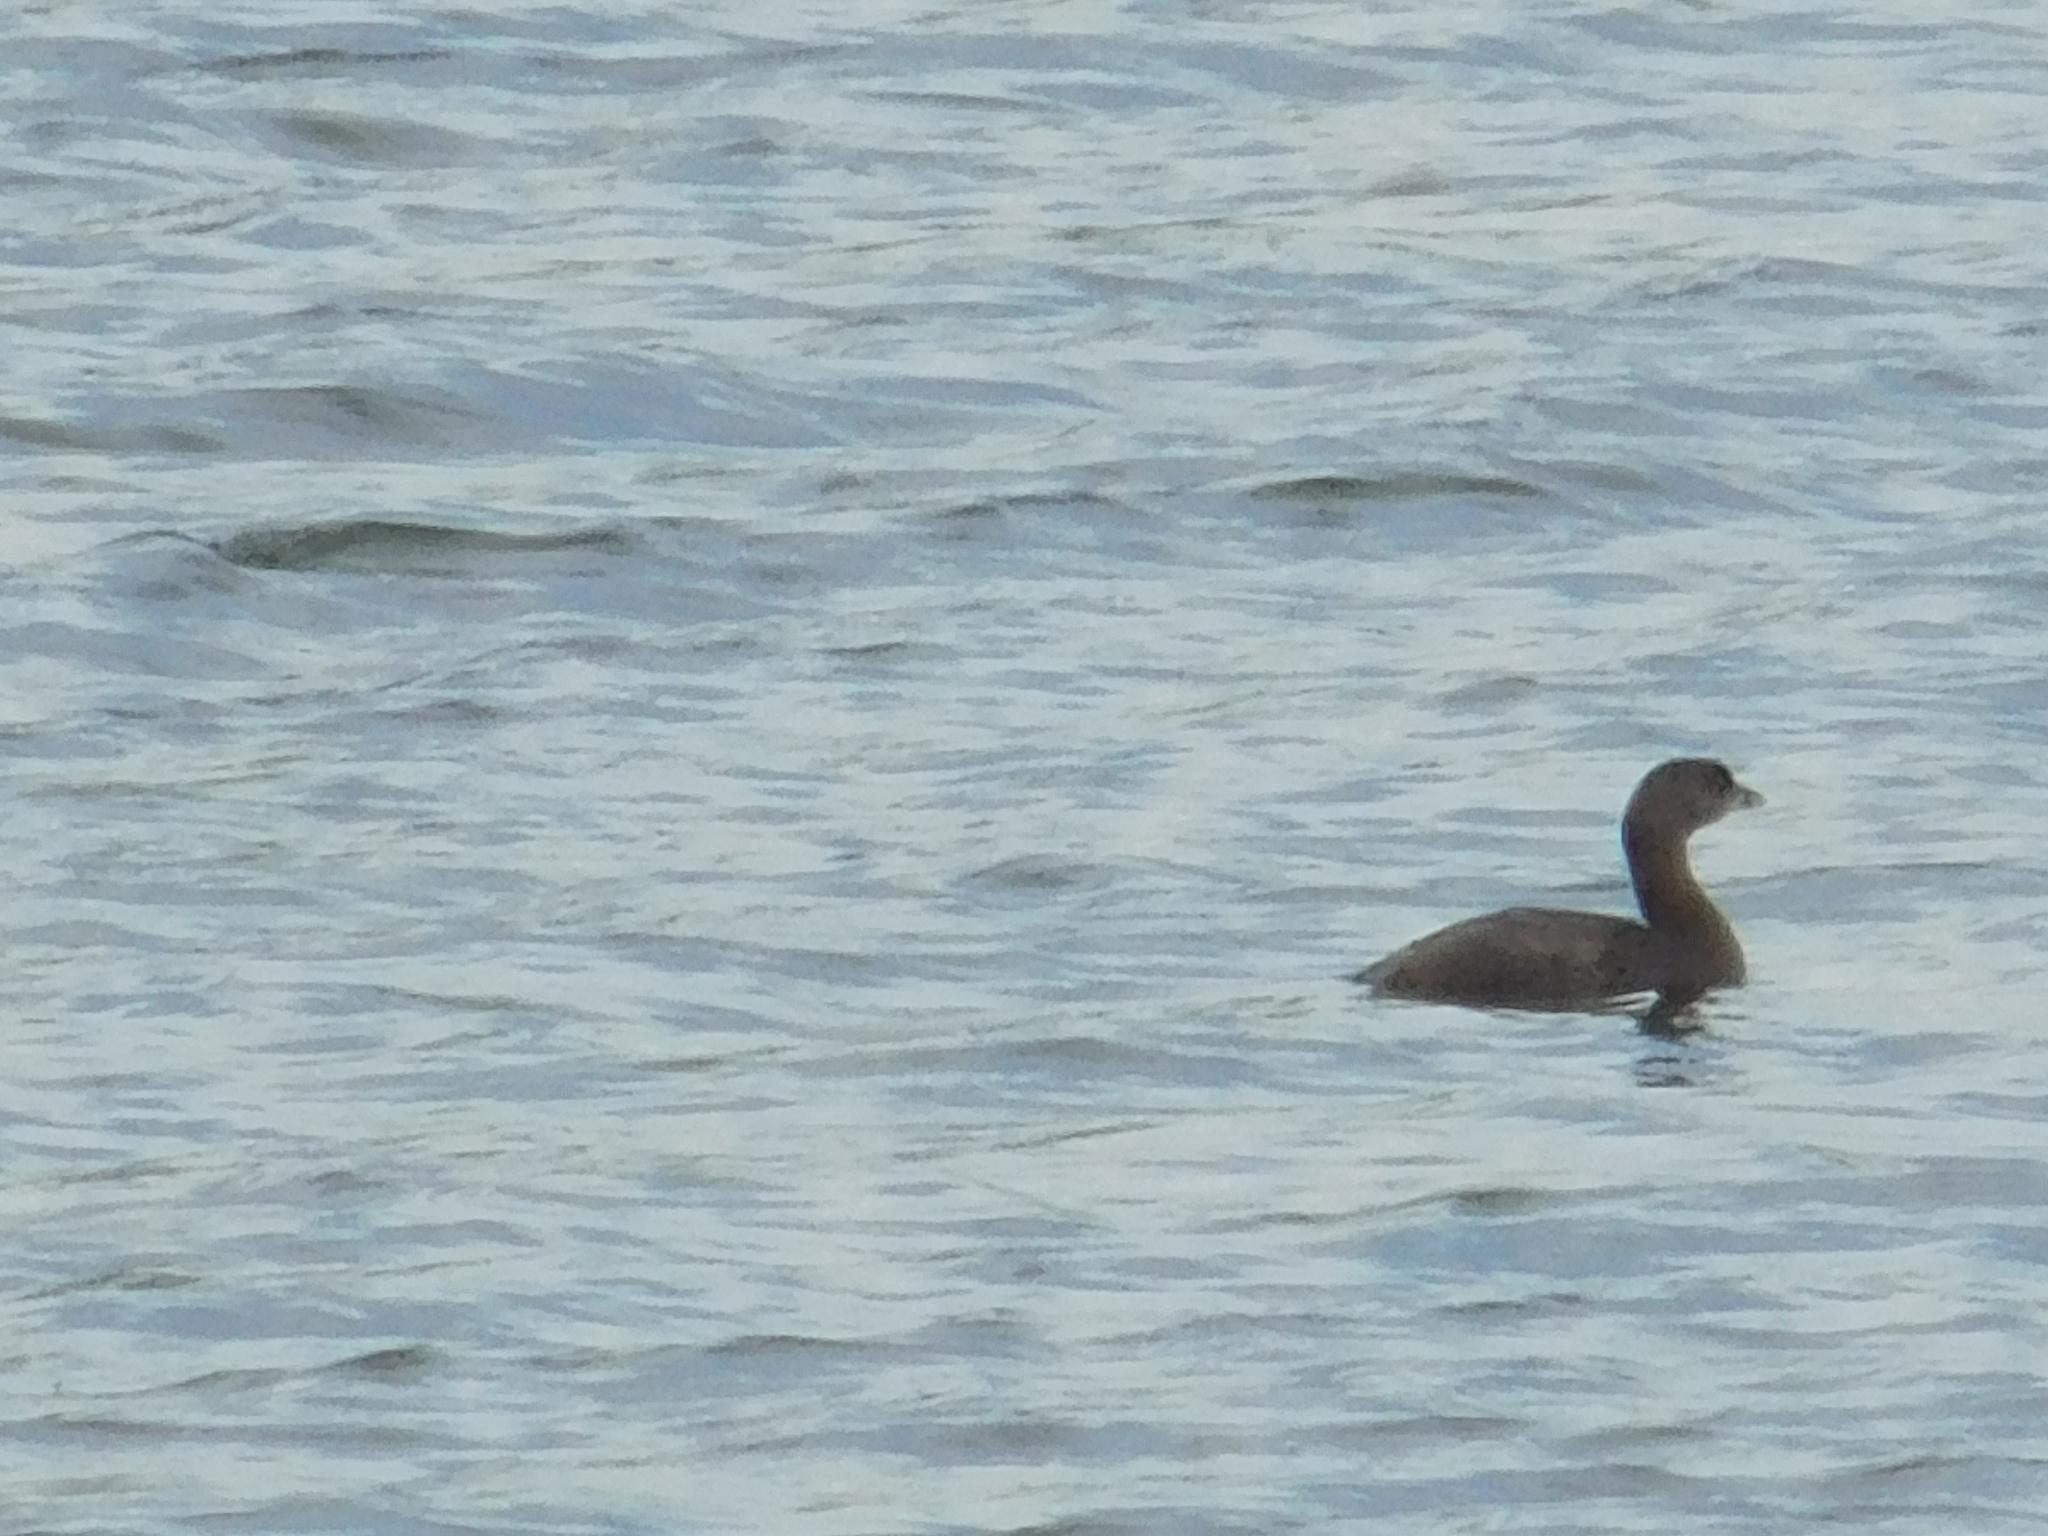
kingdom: Animalia
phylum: Chordata
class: Aves
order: Podicipediformes
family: Podicipedidae
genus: Podilymbus
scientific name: Podilymbus podiceps
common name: Pied-billed grebe
